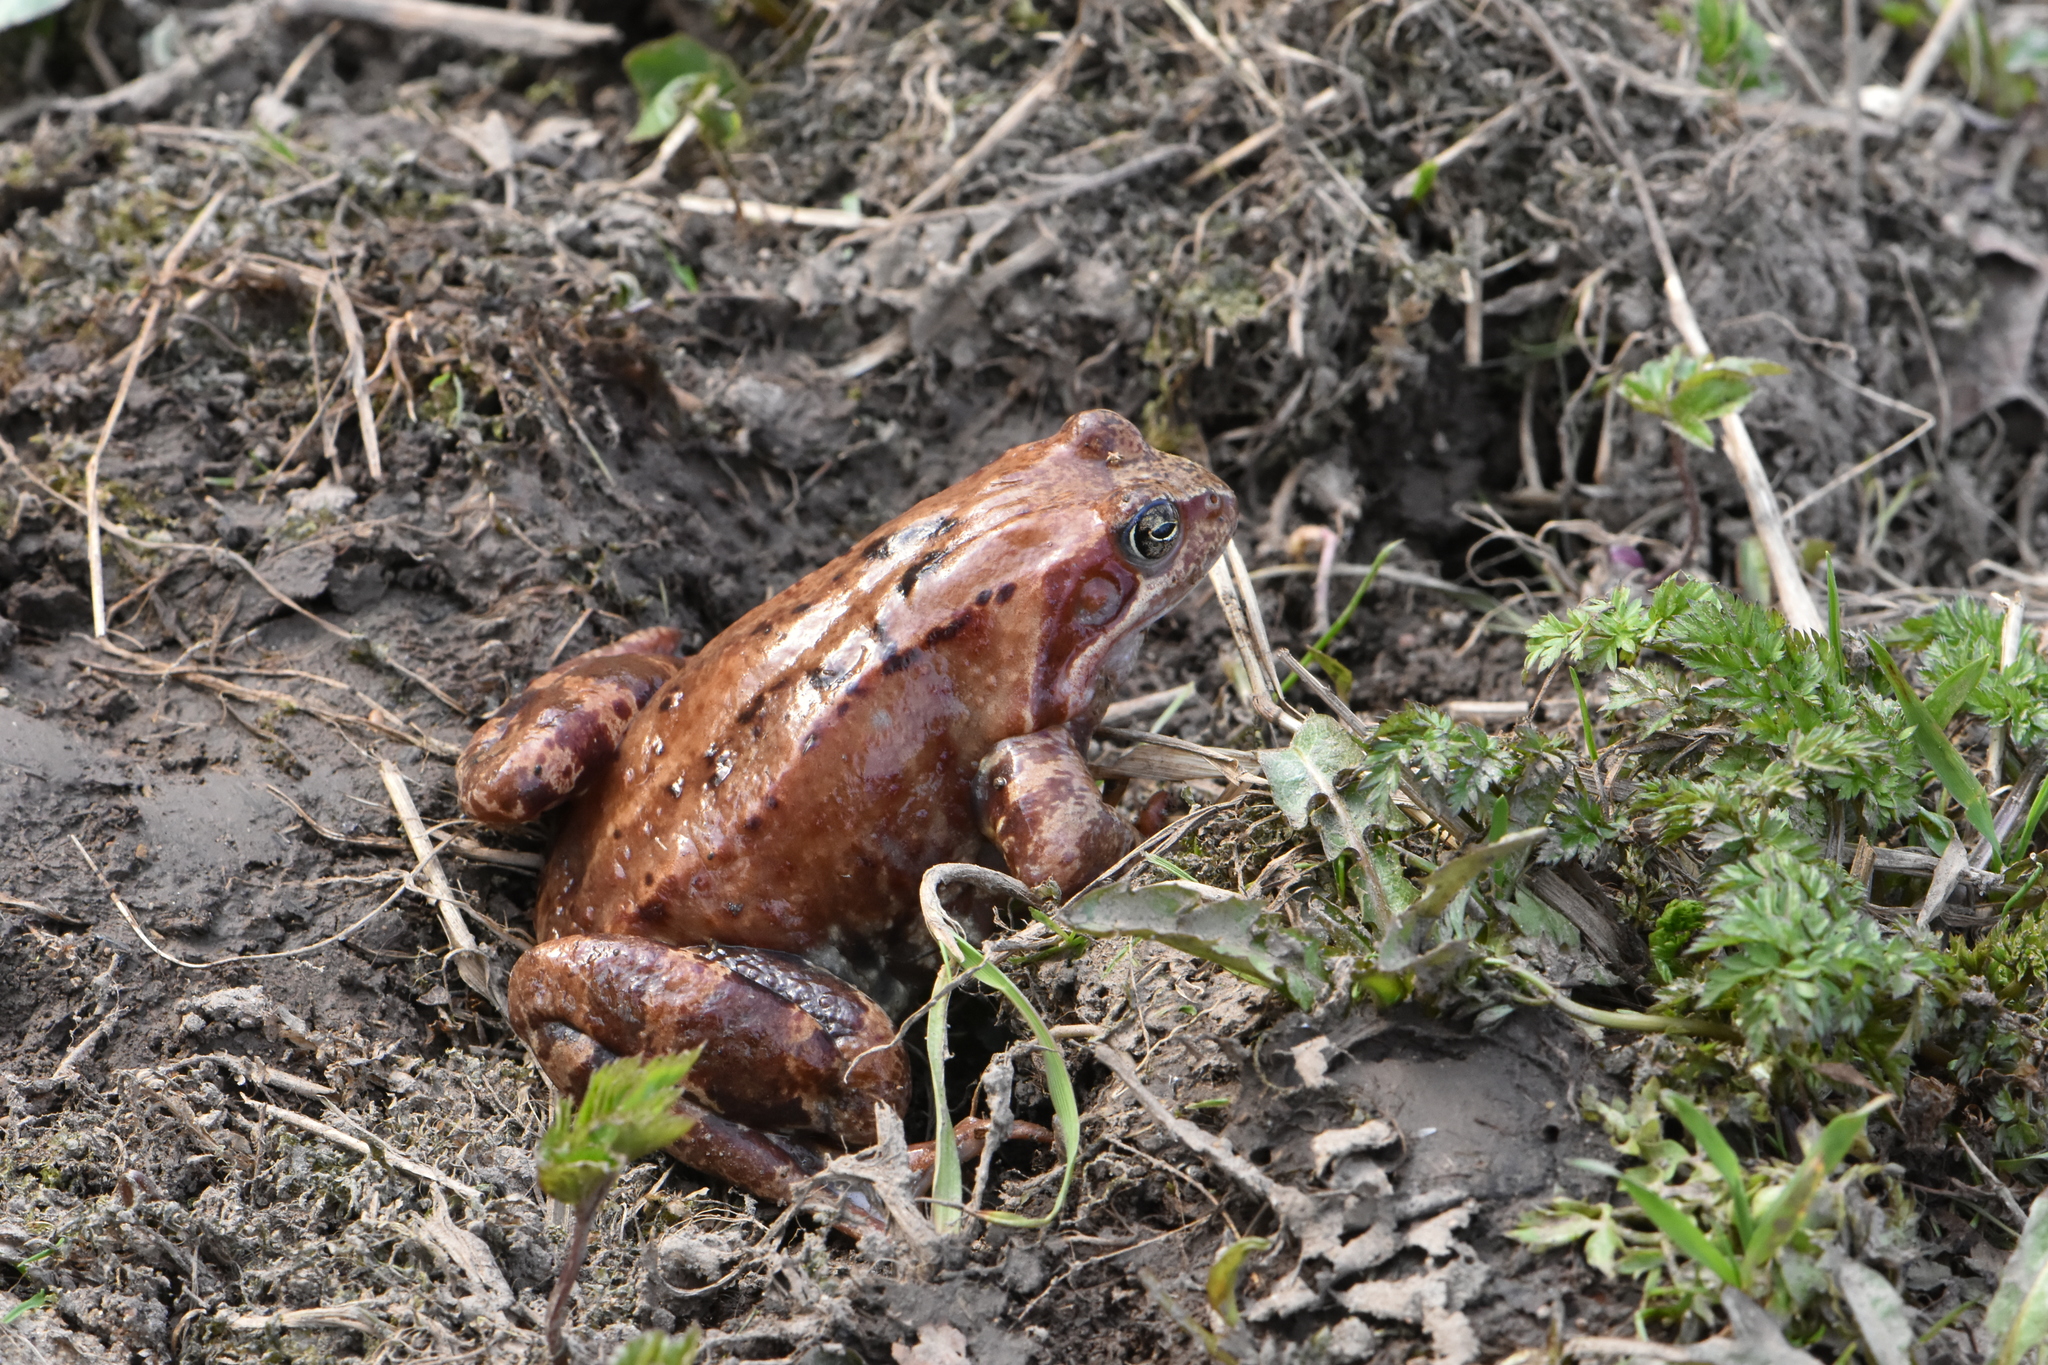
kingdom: Animalia
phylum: Chordata
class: Amphibia
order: Anura
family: Ranidae
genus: Rana
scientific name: Rana temporaria
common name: Common frog
